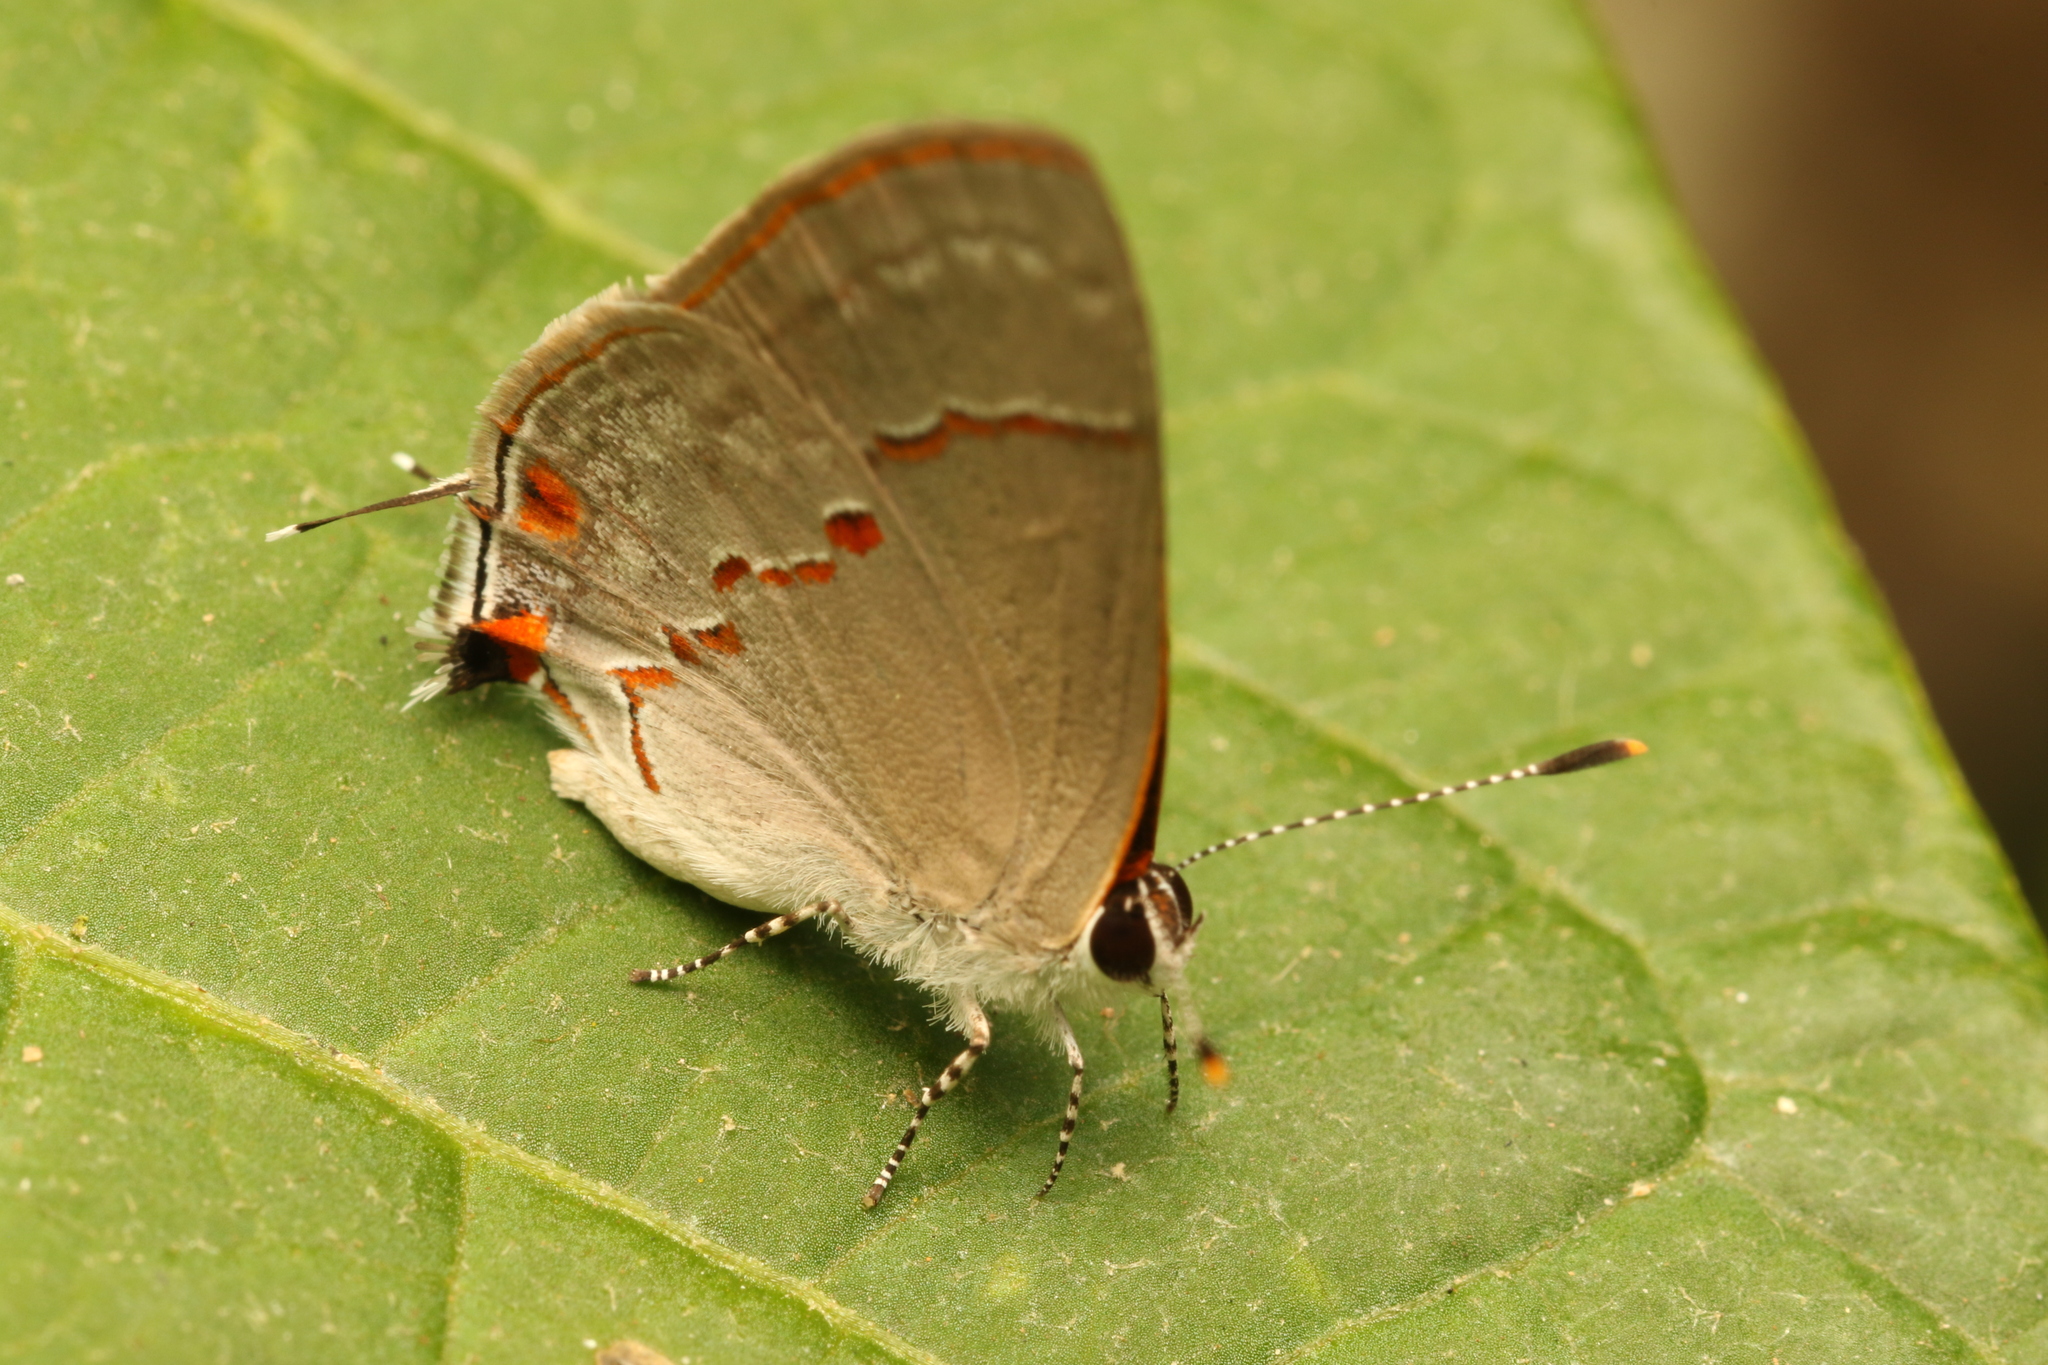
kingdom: Animalia
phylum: Arthropoda
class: Insecta
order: Lepidoptera
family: Lycaenidae
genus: Thecla
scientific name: Thecla azia
